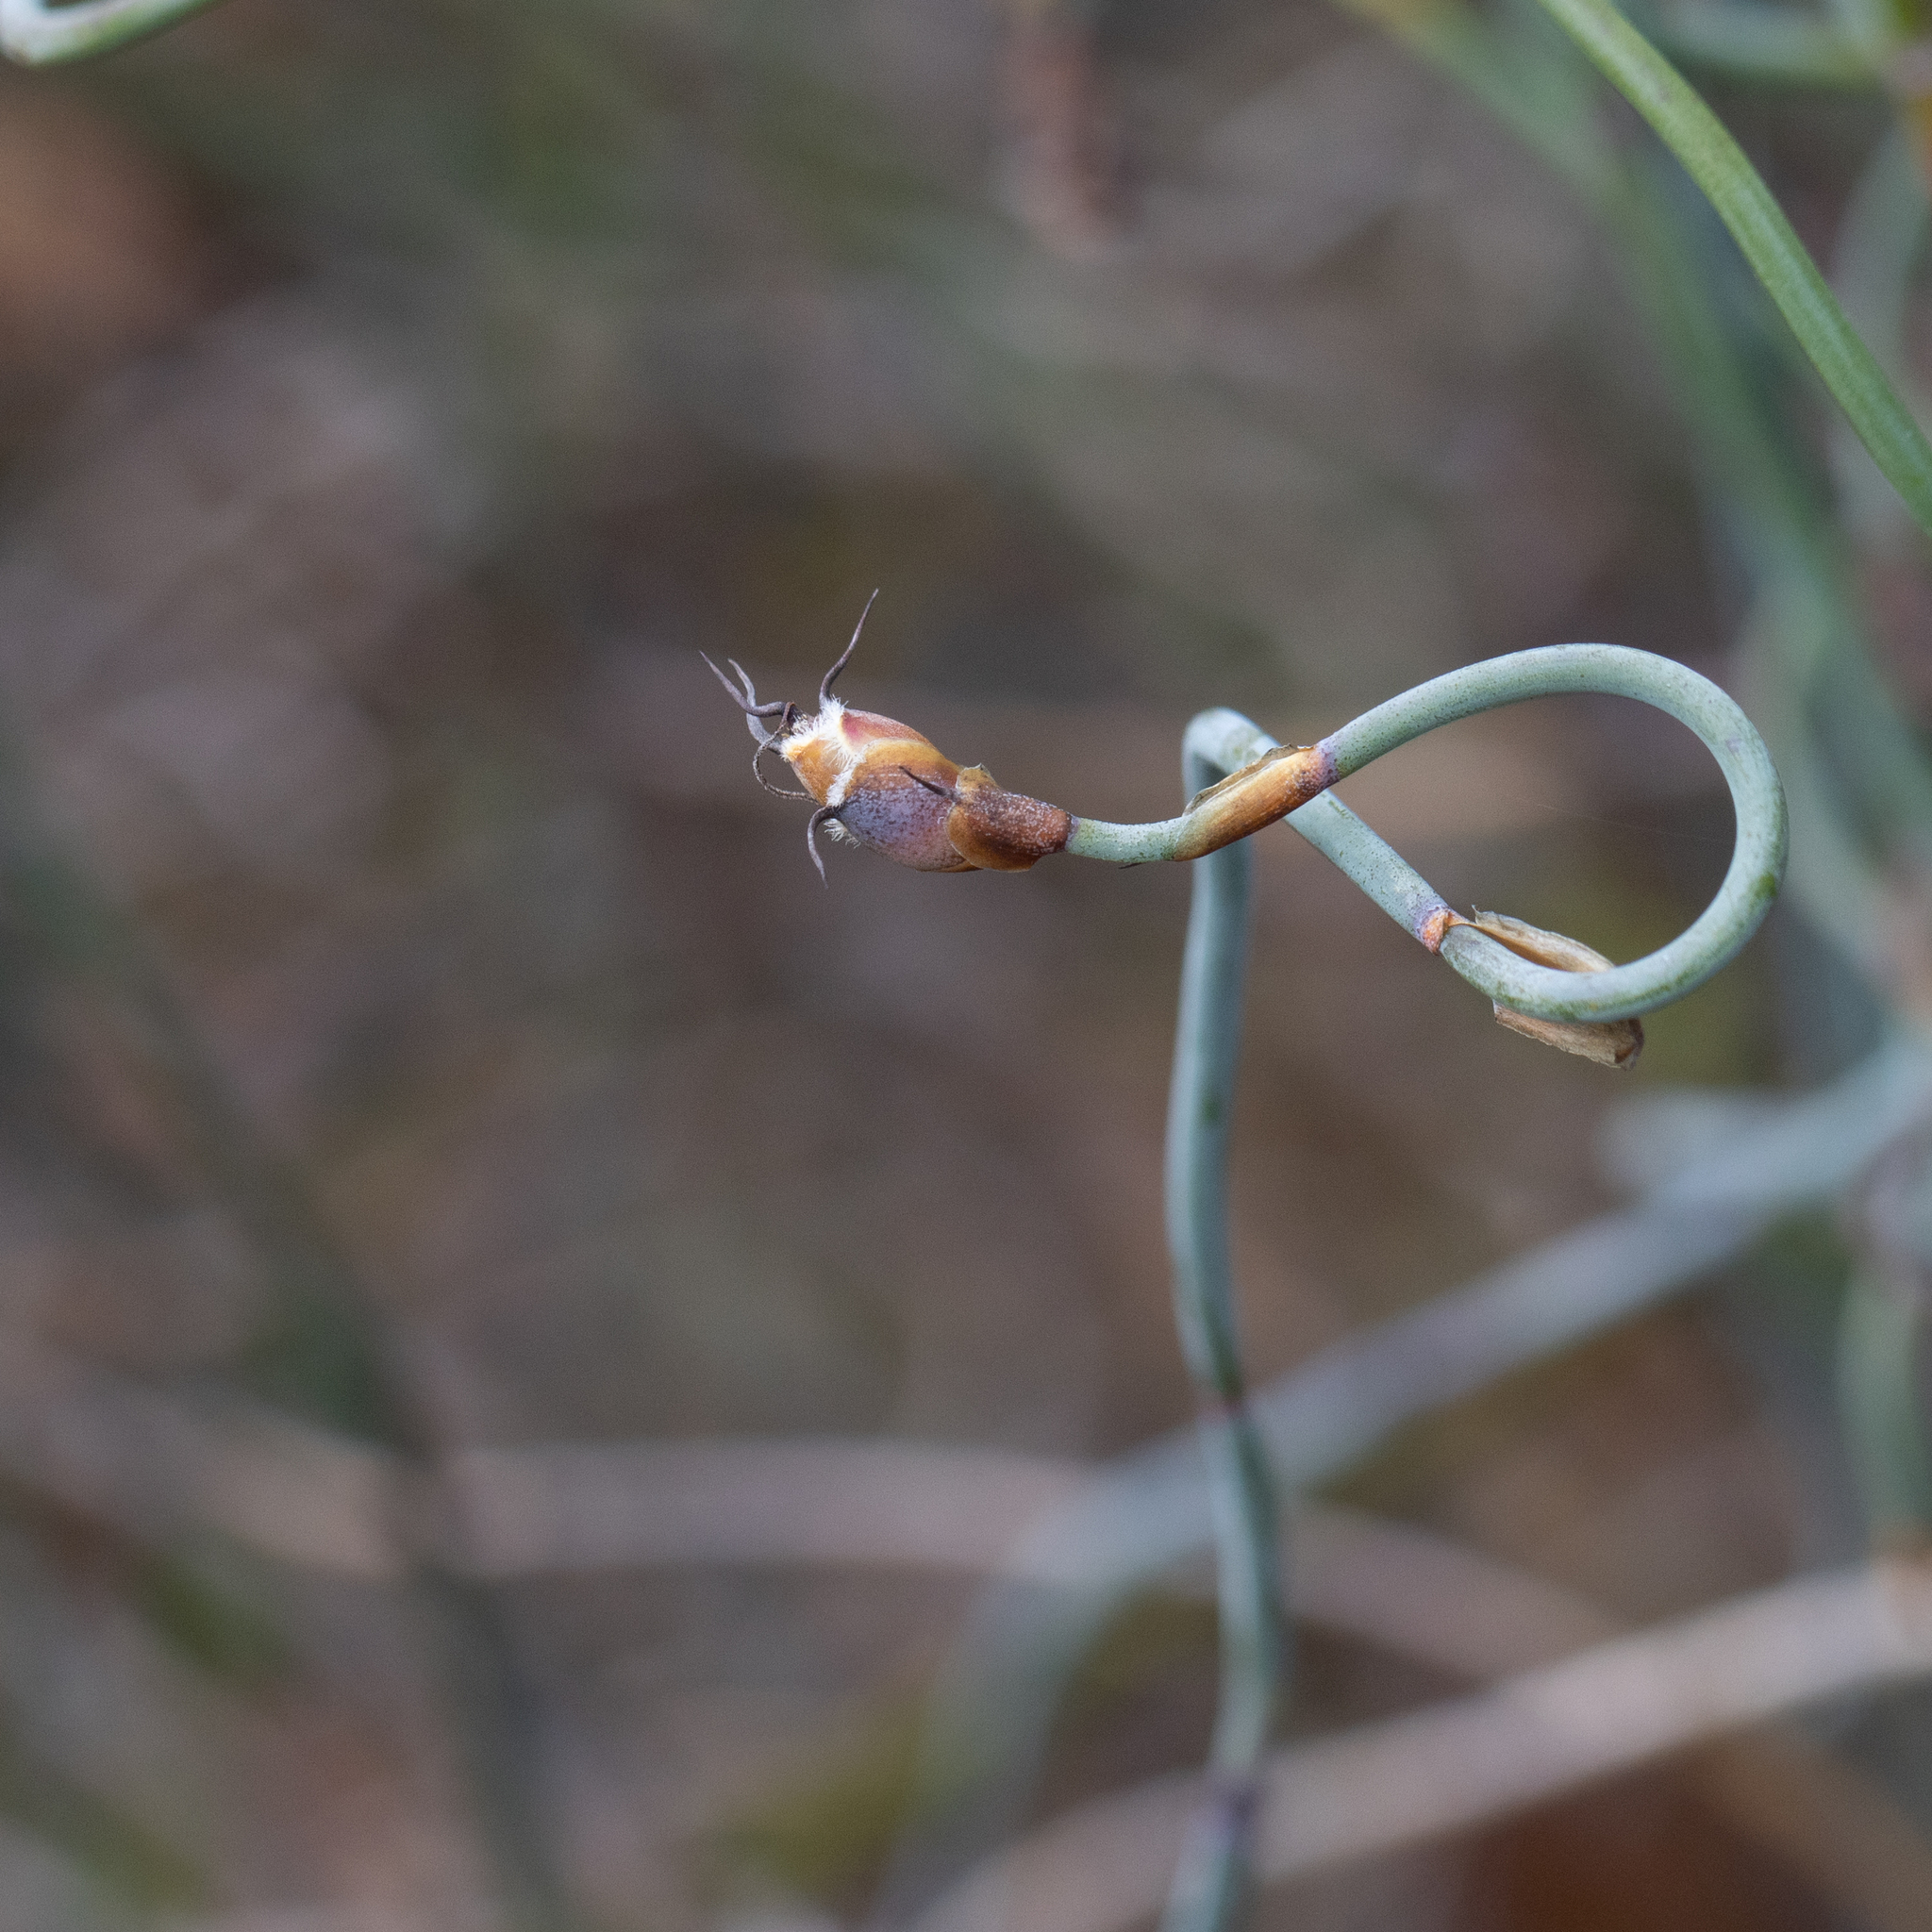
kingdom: Plantae
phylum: Tracheophyta
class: Liliopsida
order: Poales
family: Restionaceae
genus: Lepidobolus
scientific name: Lepidobolus drapetocoleus
